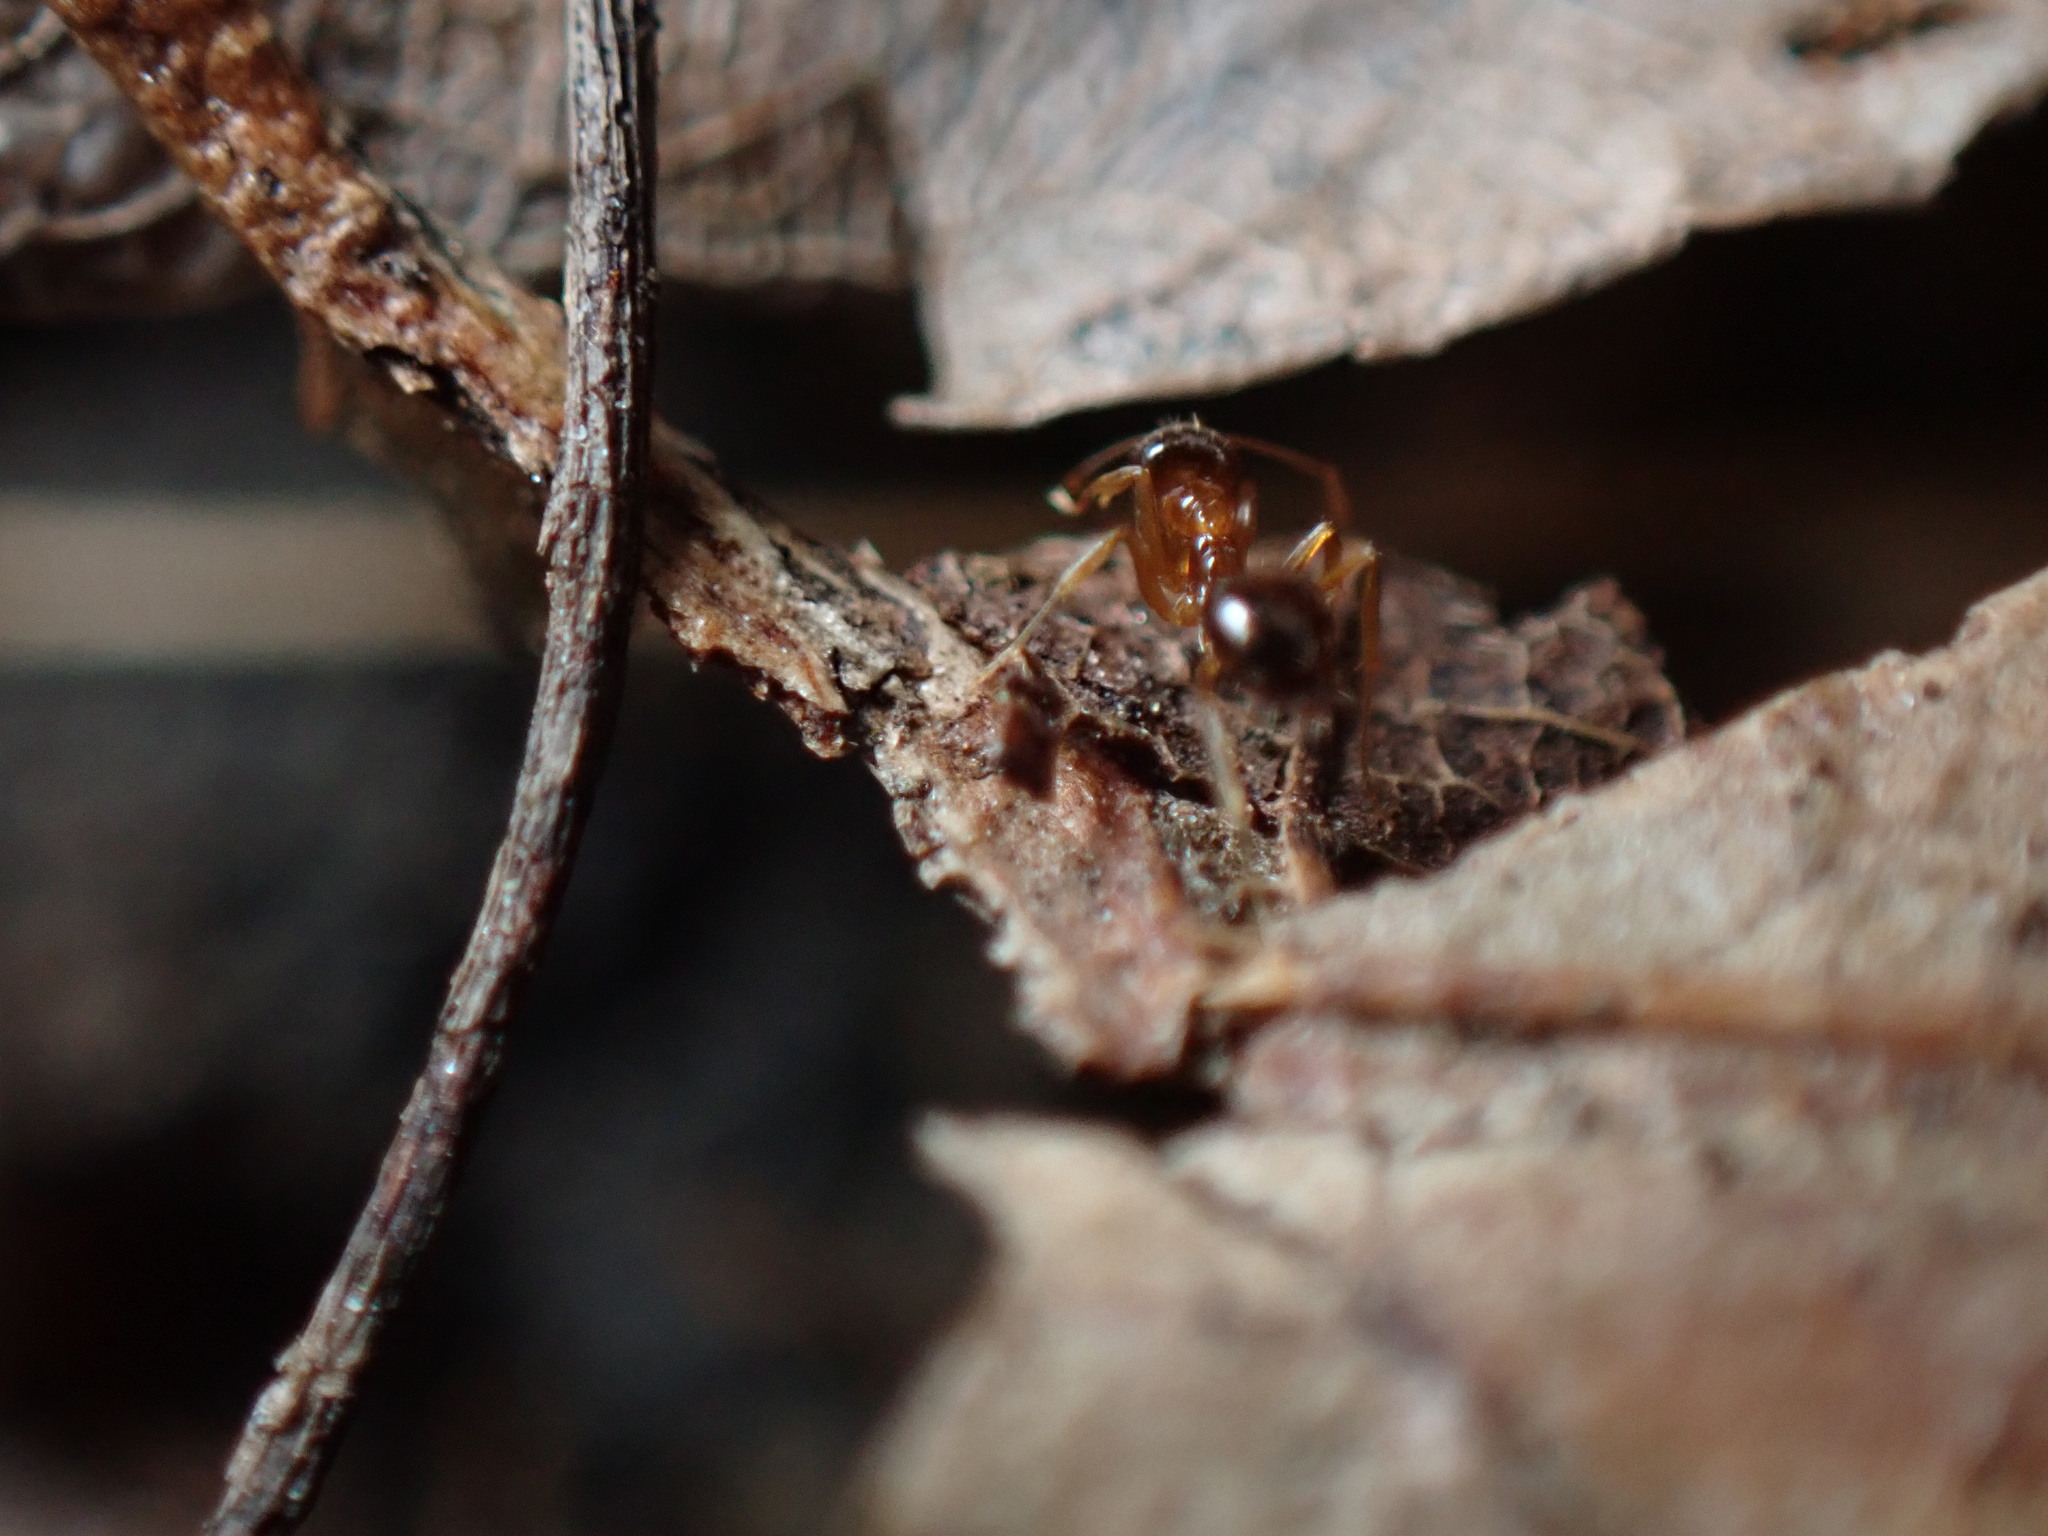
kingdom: Animalia
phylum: Arthropoda
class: Insecta
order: Hymenoptera
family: Formicidae
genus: Paratrechina
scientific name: Paratrechina flavipes
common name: Eastern asian formicine ant
